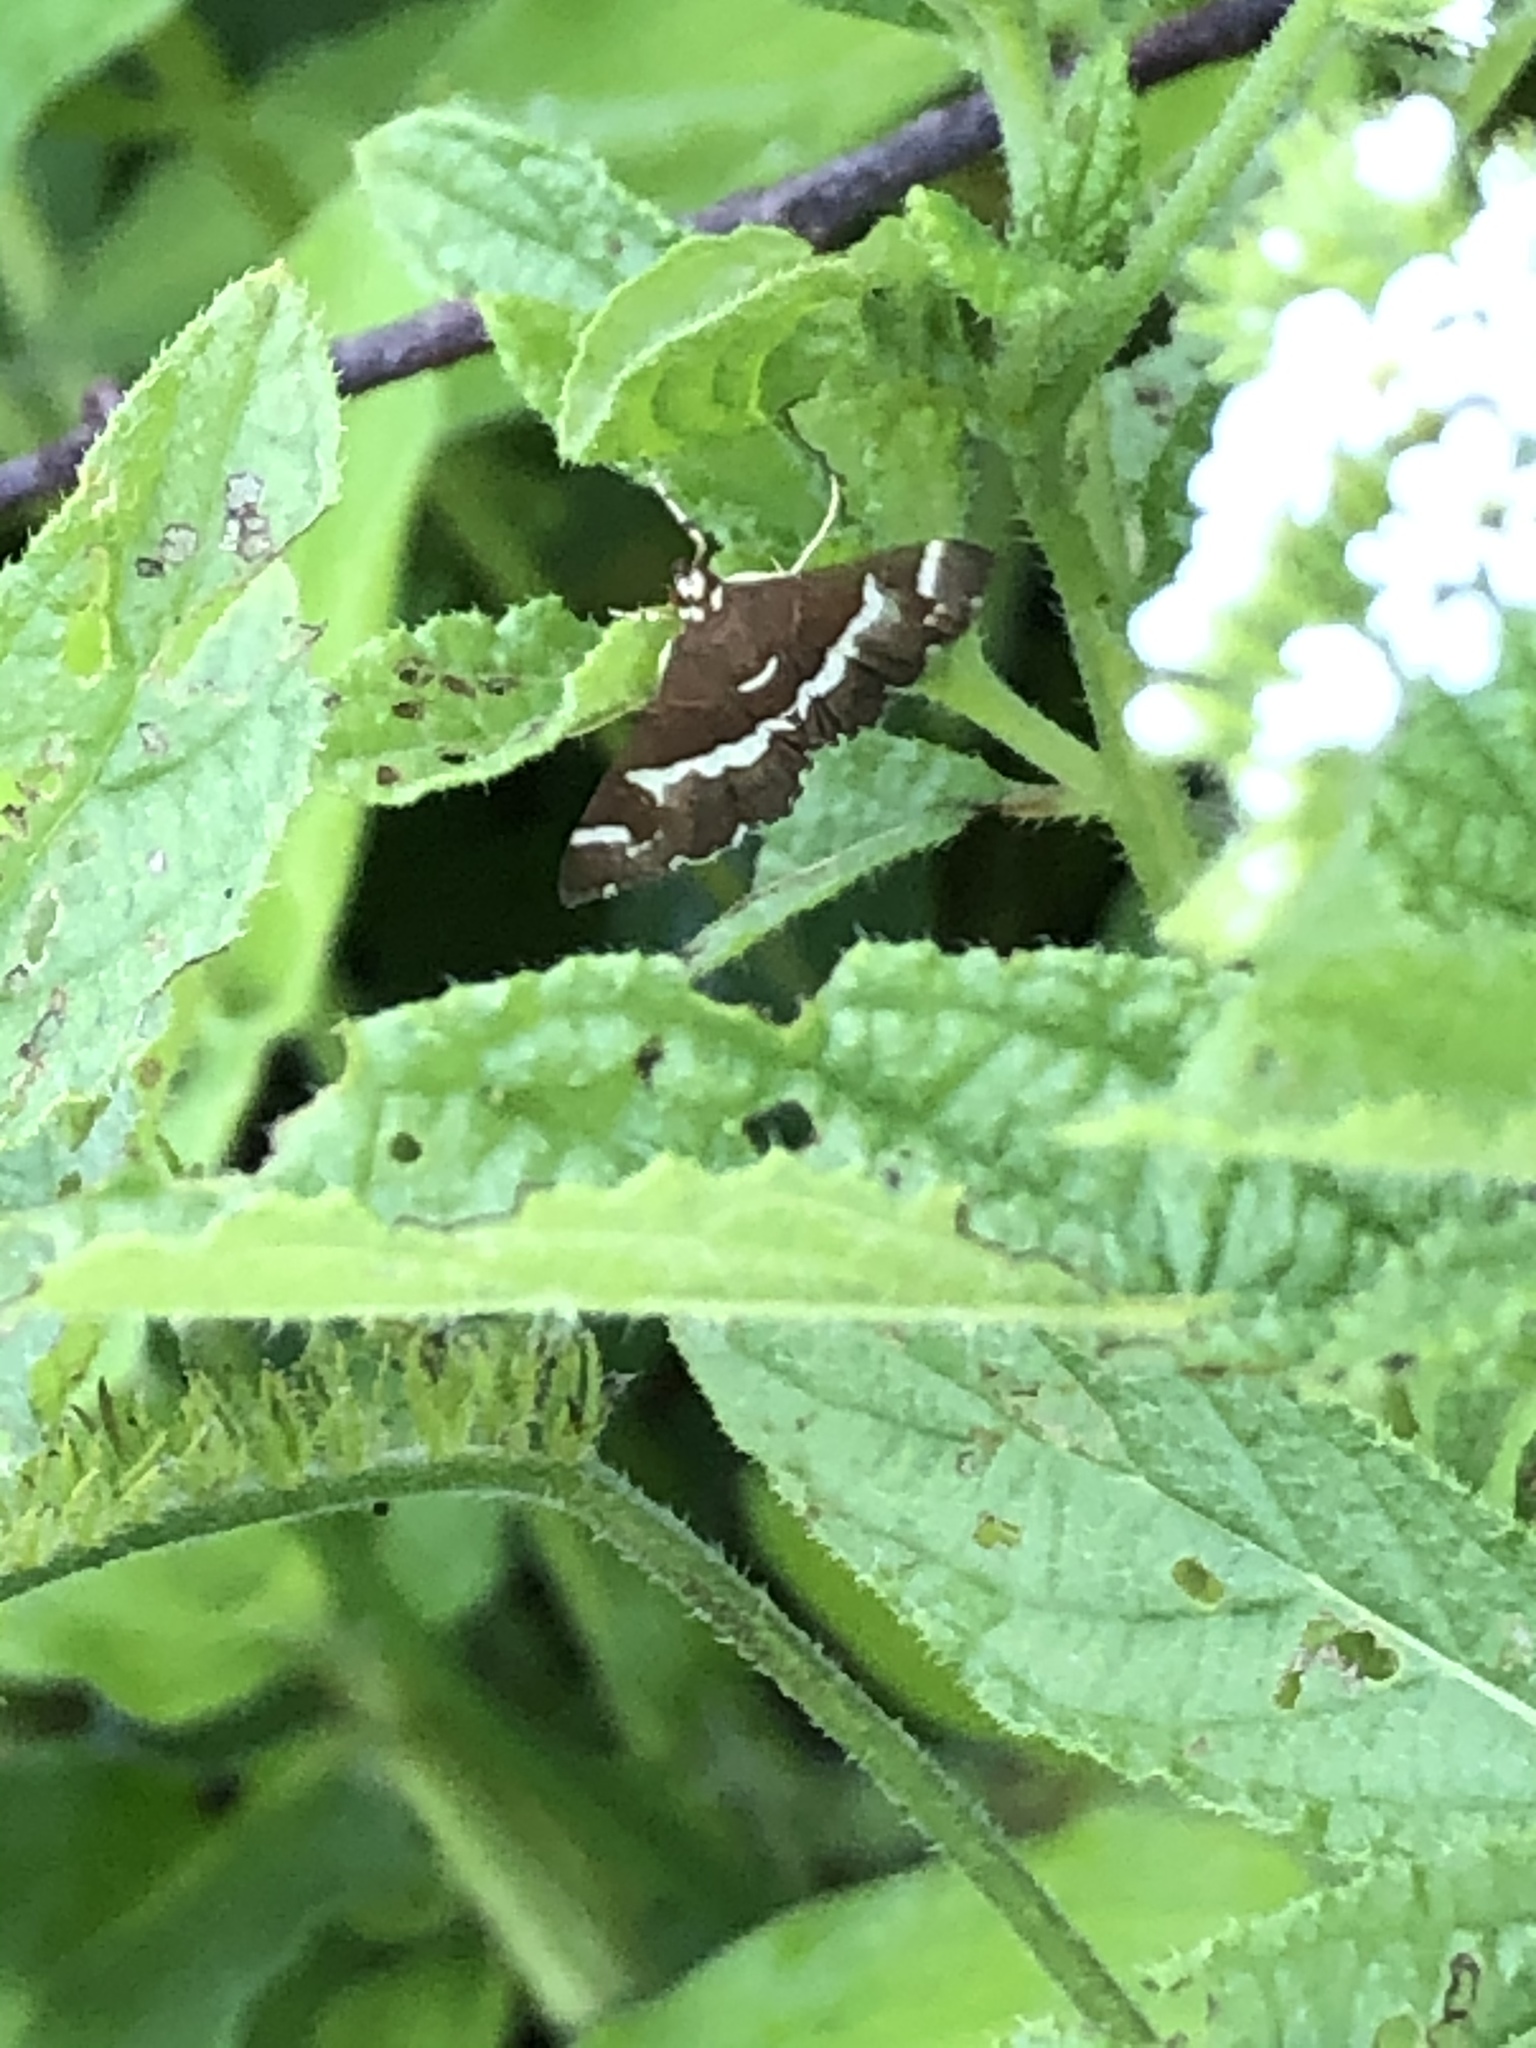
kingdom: Animalia
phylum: Arthropoda
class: Insecta
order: Lepidoptera
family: Crambidae
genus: Spoladea
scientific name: Spoladea recurvalis
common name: Beet webworm moth
